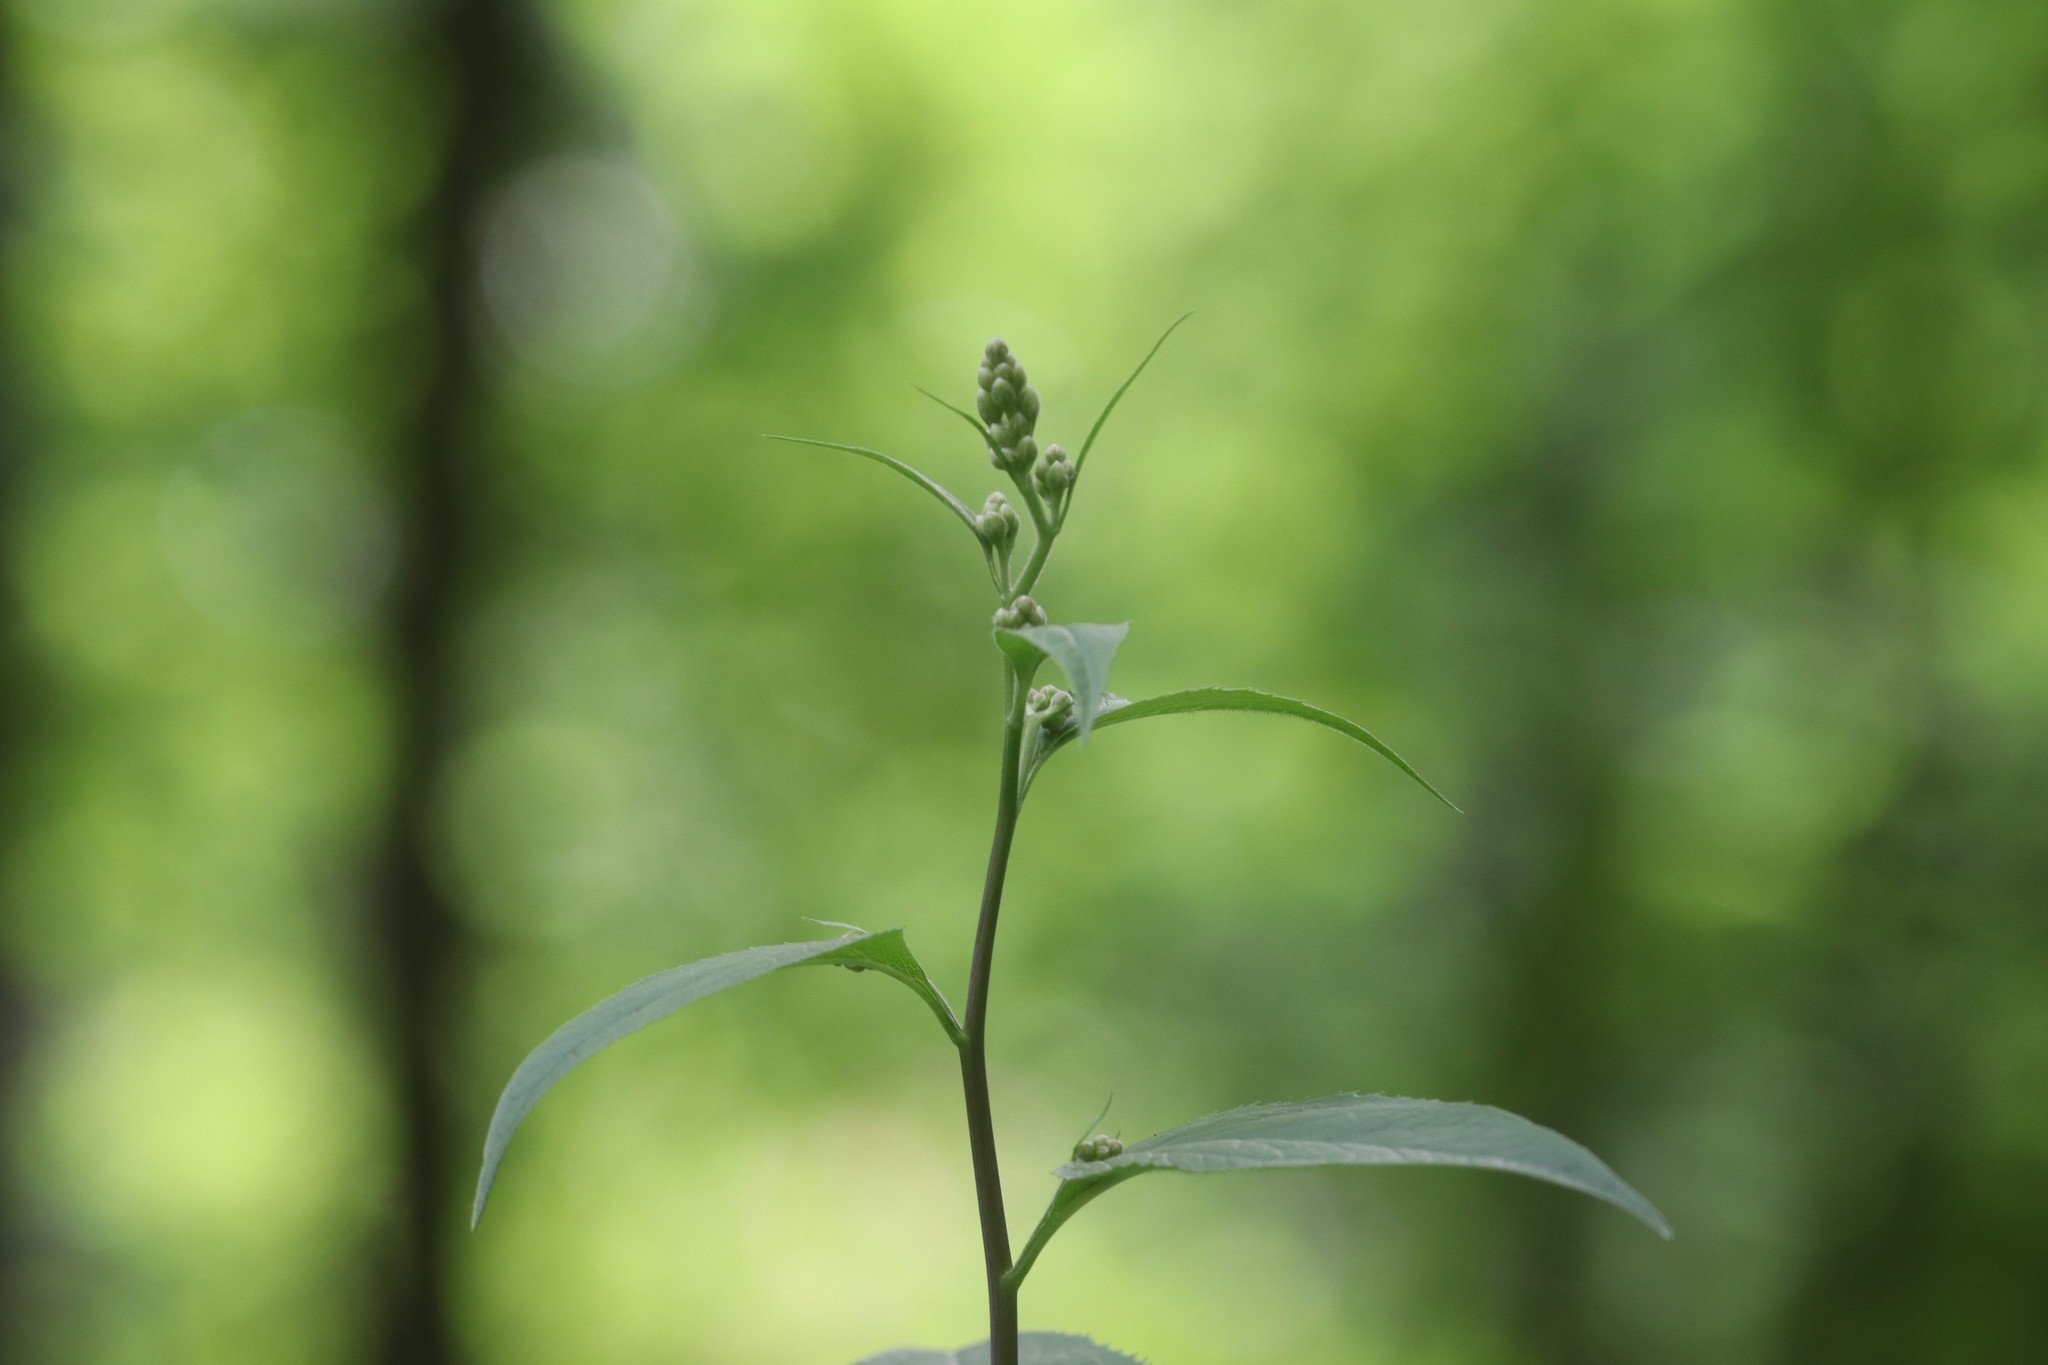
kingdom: Plantae
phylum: Tracheophyta
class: Magnoliopsida
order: Asterales
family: Asteraceae
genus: Parasenecio
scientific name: Parasenecio hastatus
